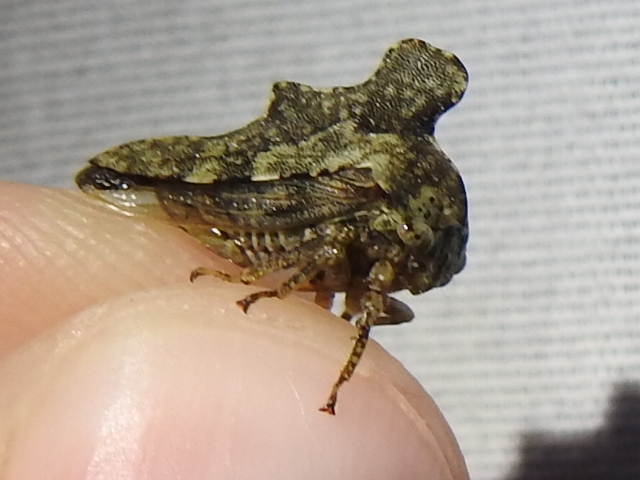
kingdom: Animalia
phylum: Arthropoda
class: Insecta
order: Hemiptera
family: Membracidae
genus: Heliria
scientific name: Heliria cristata
